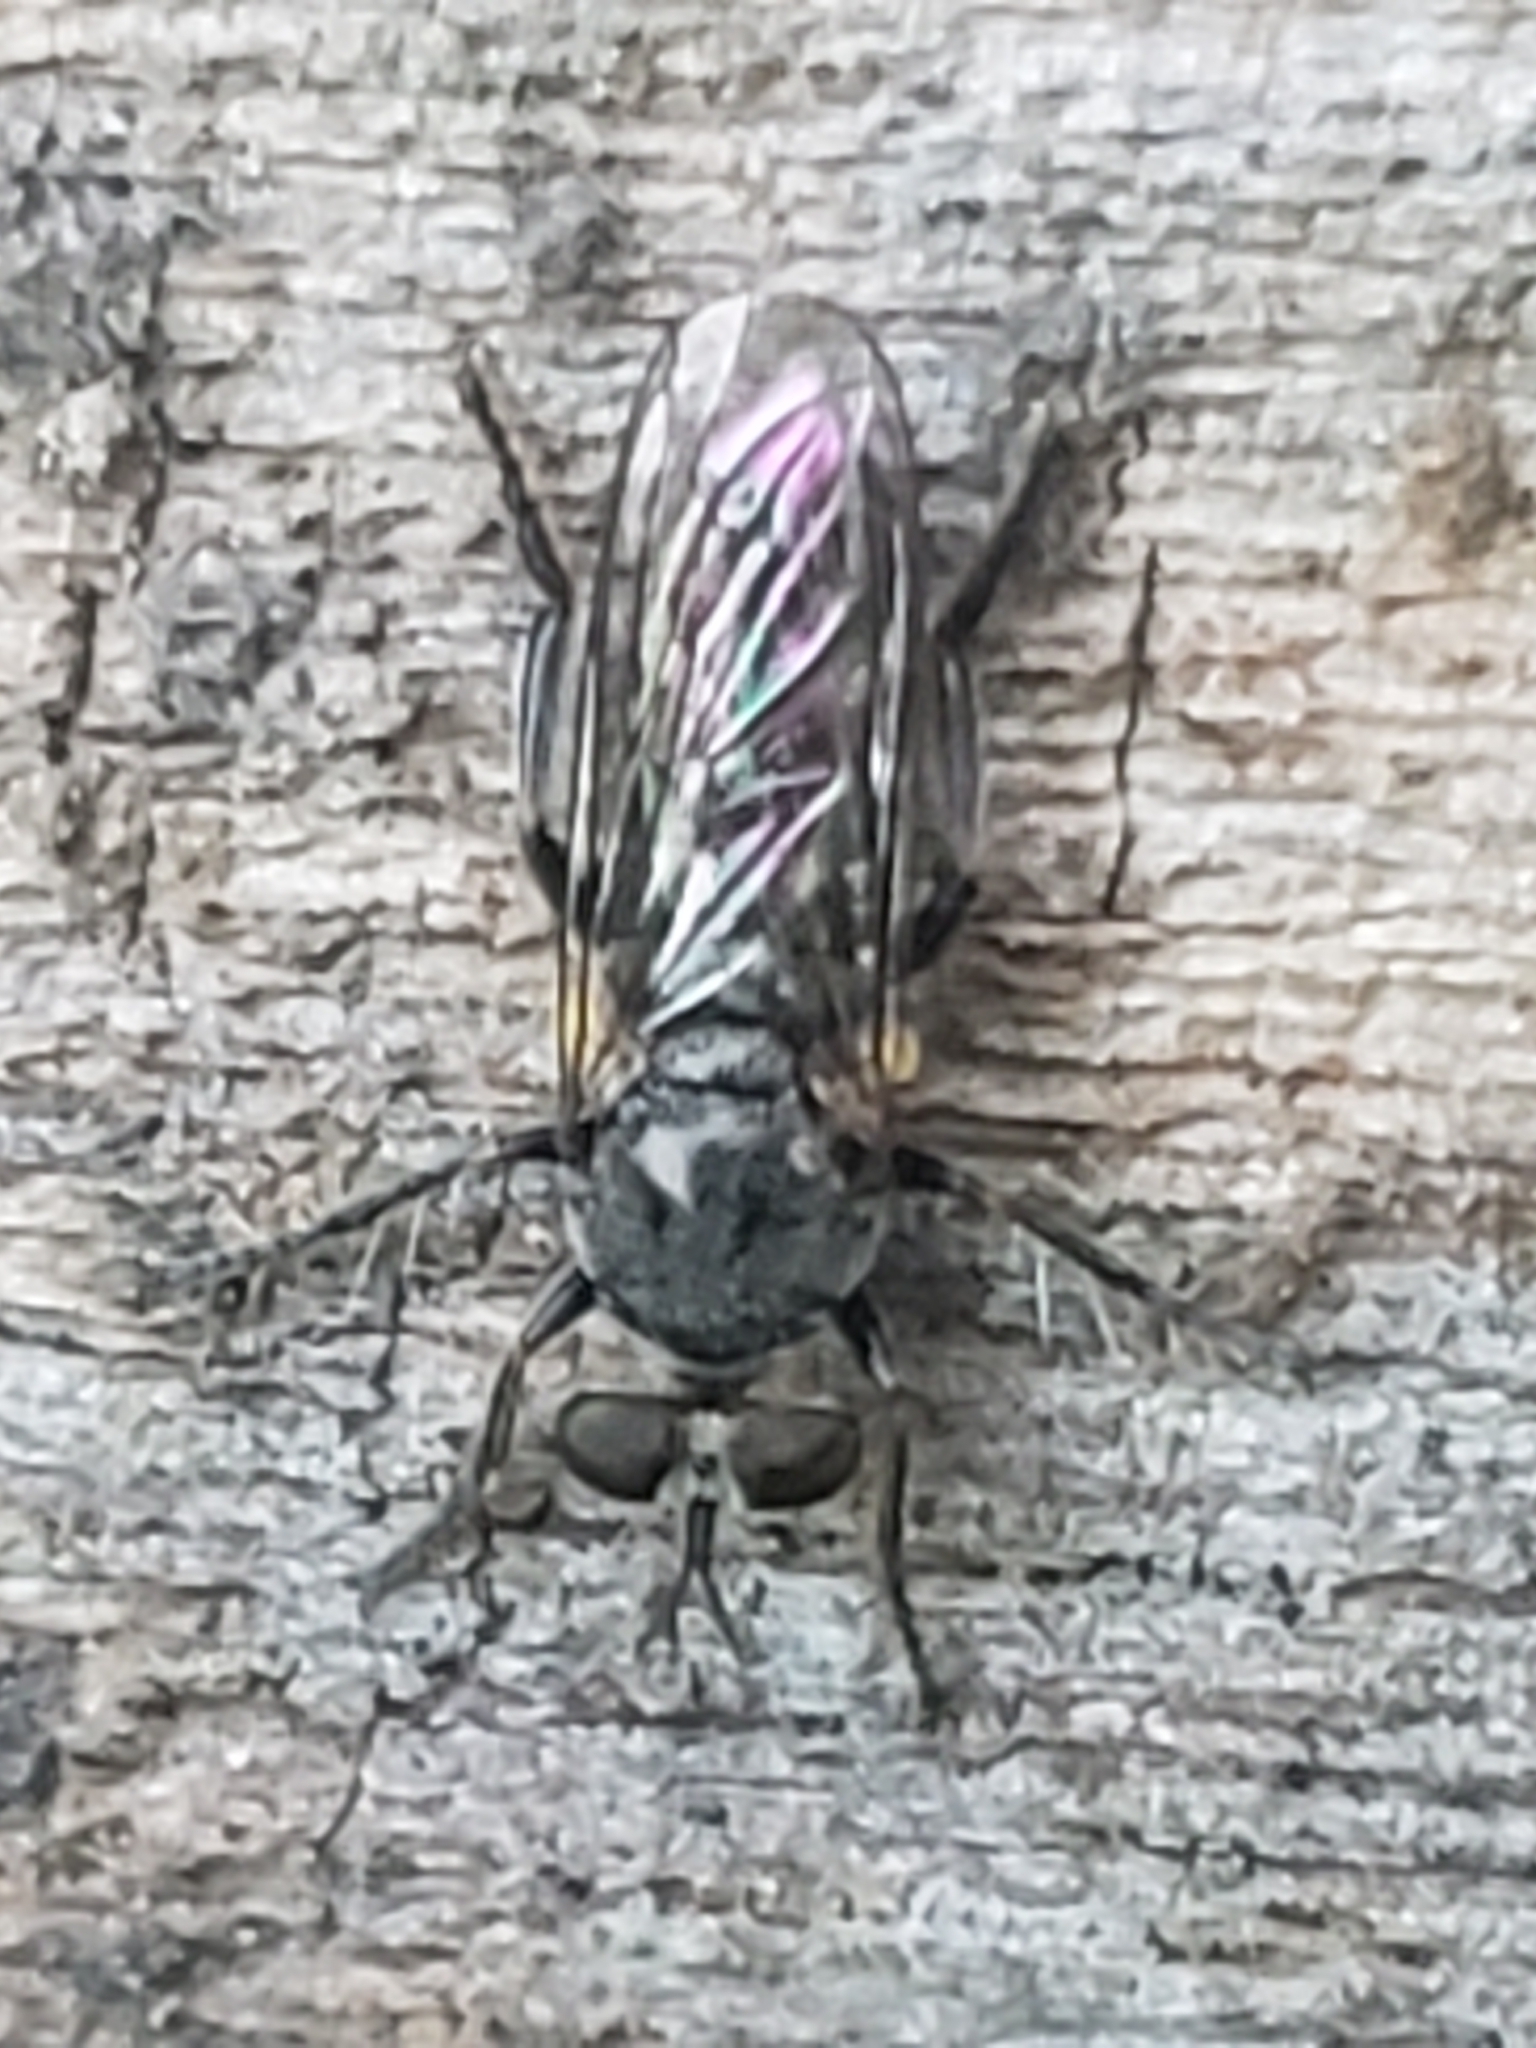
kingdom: Animalia
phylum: Arthropoda
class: Insecta
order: Diptera
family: Asilidae
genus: Atomosia
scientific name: Atomosia puella
